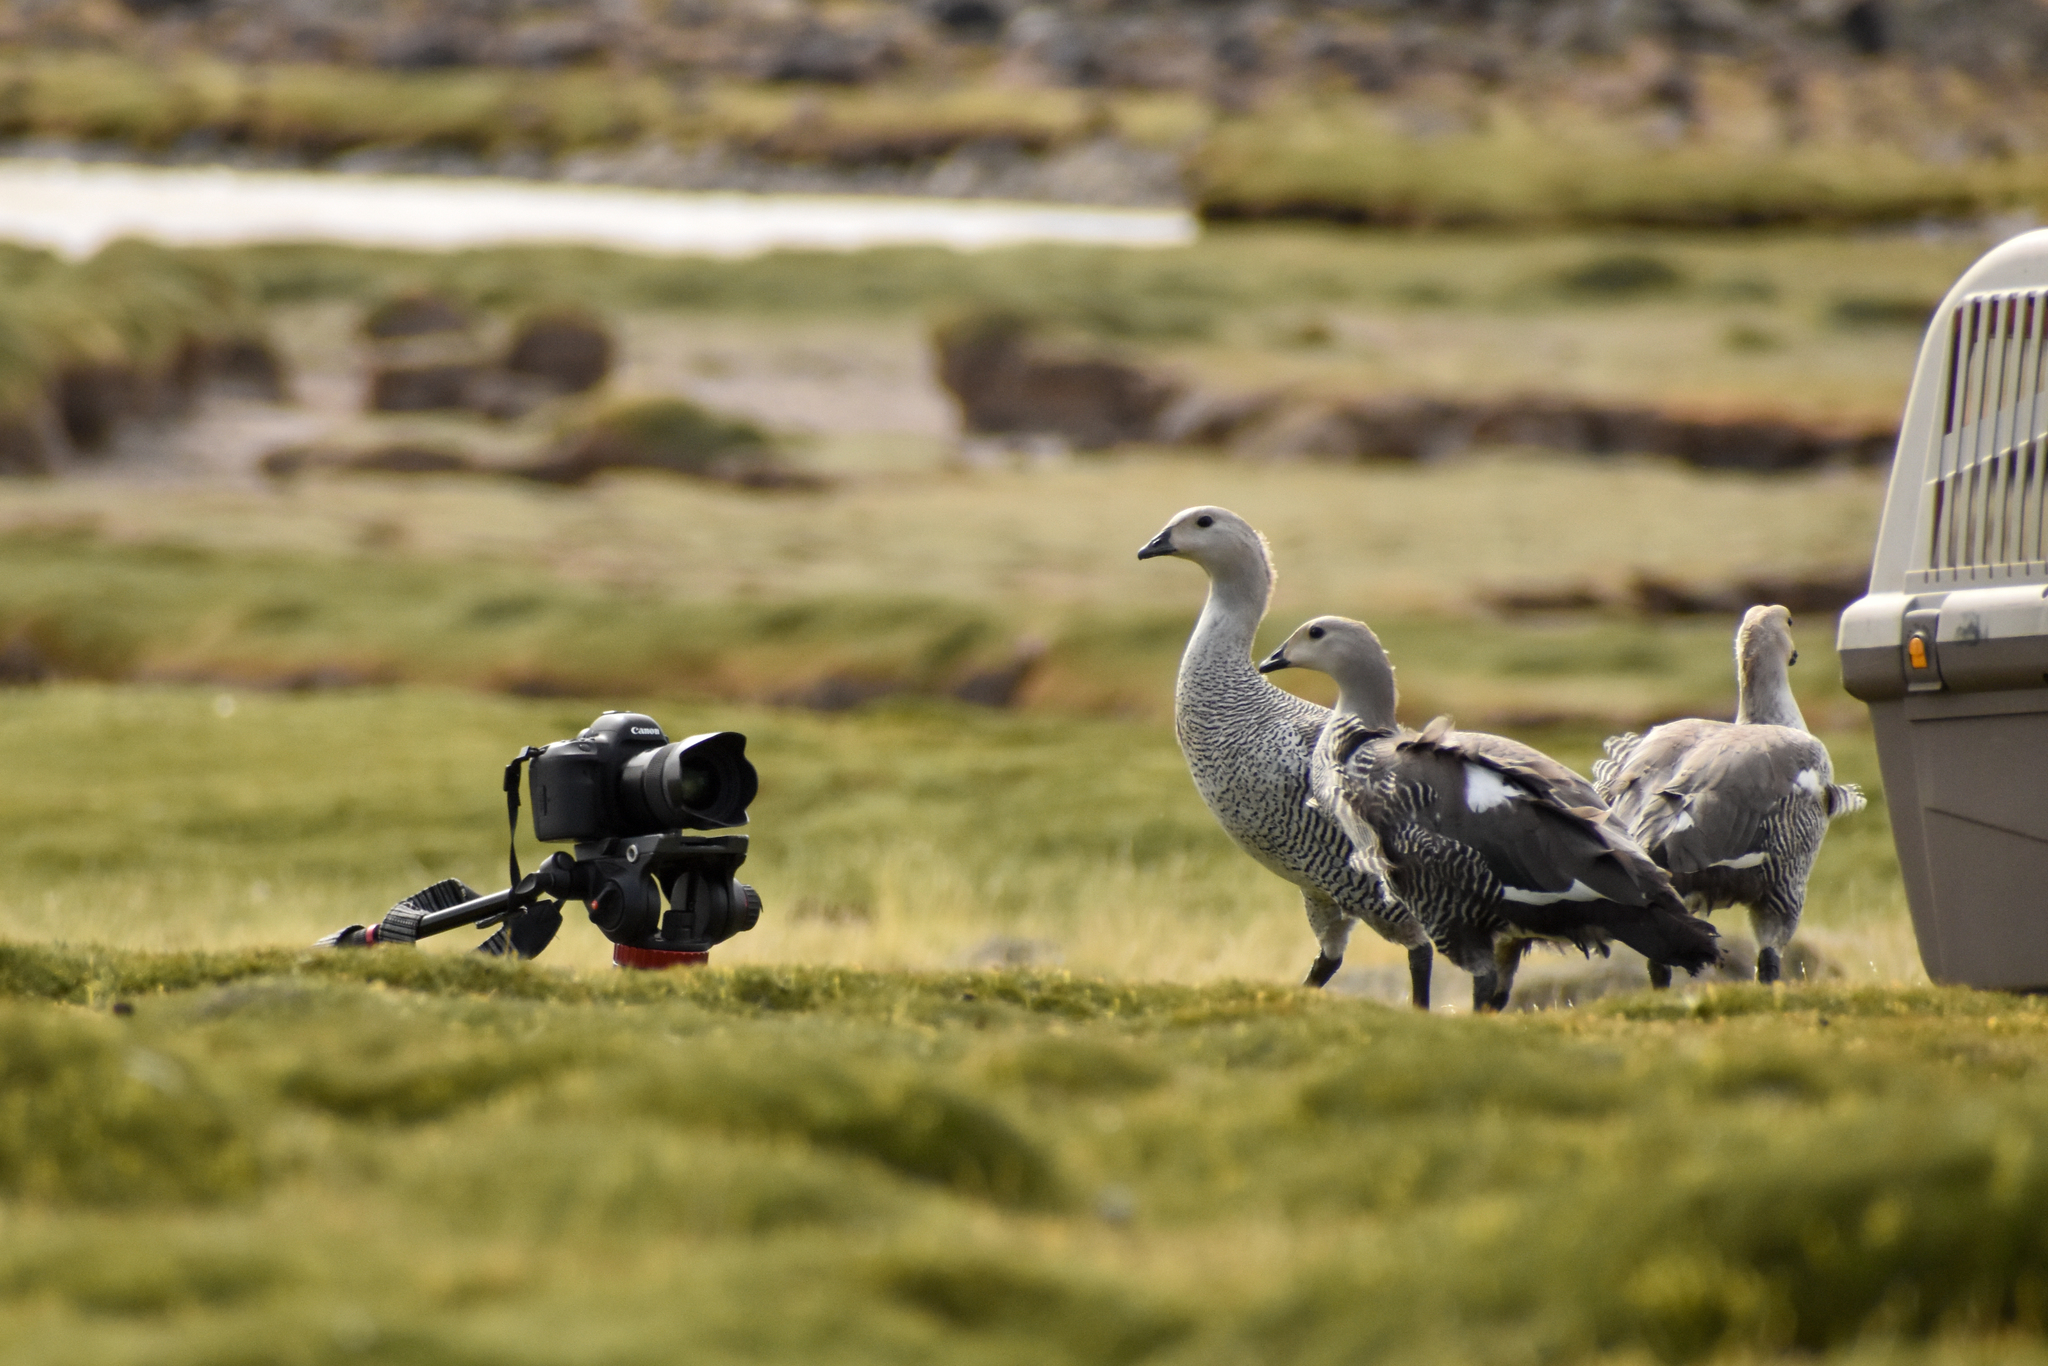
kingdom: Animalia
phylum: Chordata
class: Aves
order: Anseriformes
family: Anatidae
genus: Chloephaga
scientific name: Chloephaga picta
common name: Upland goose
